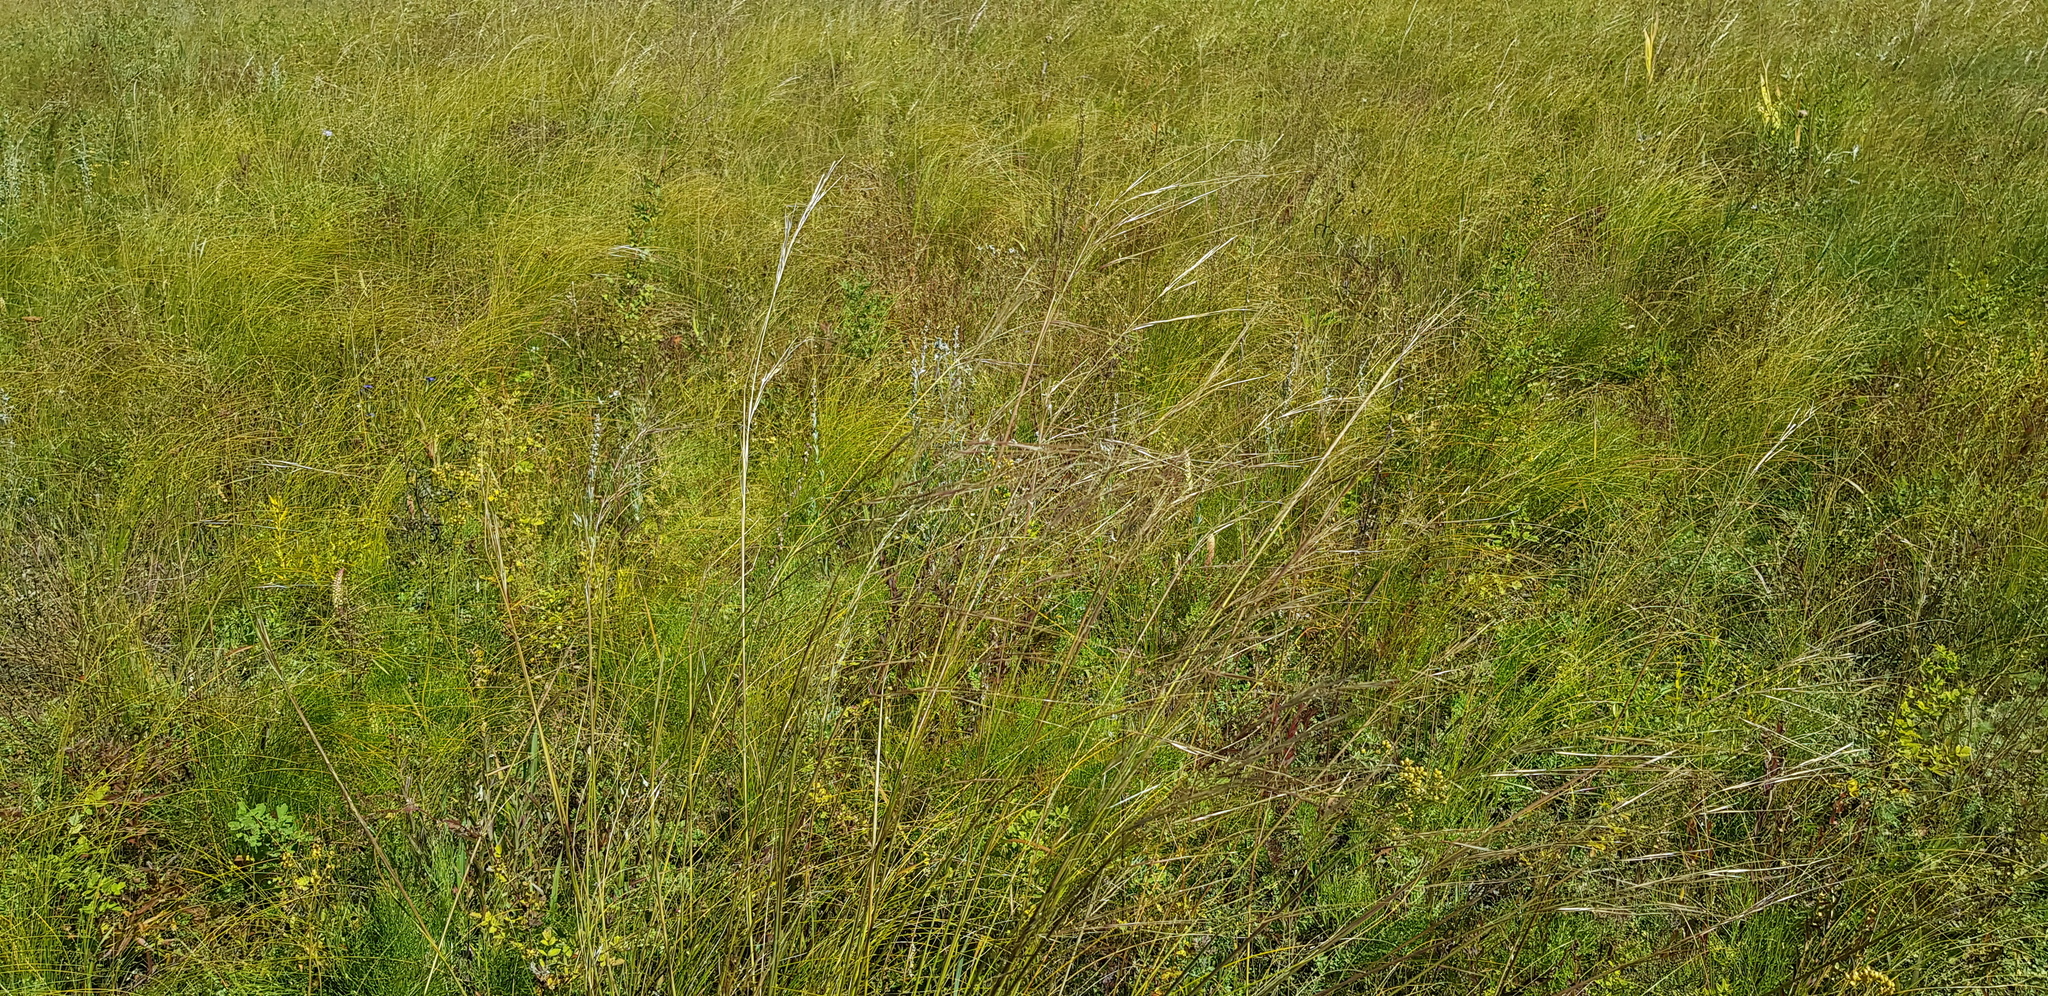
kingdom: Plantae
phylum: Tracheophyta
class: Liliopsida
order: Poales
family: Poaceae
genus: Stipa
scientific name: Stipa grandis
